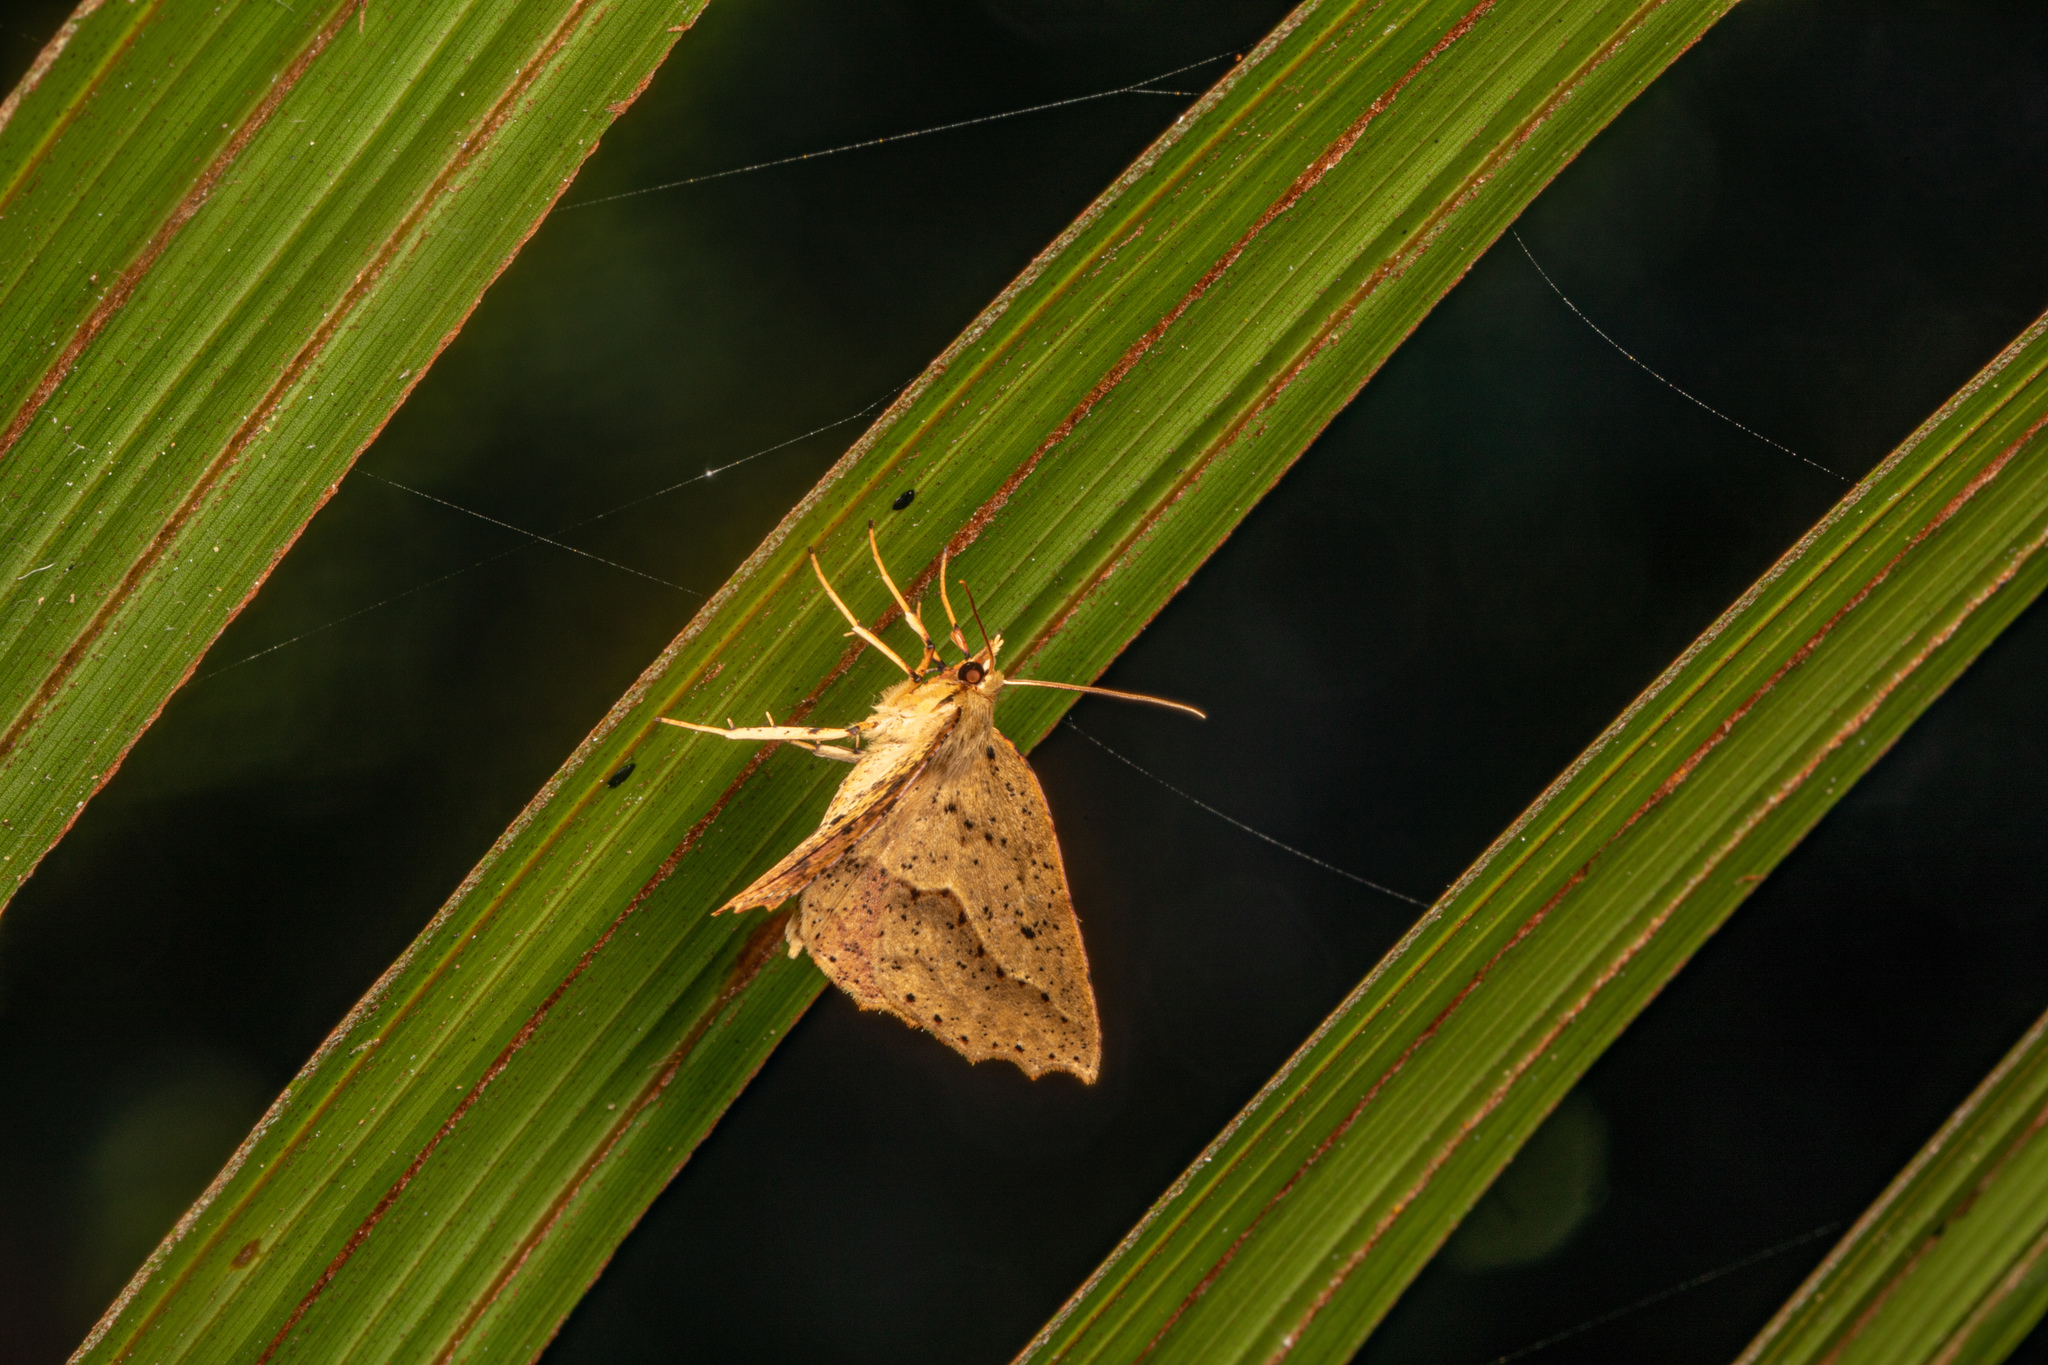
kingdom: Animalia
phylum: Arthropoda
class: Insecta
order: Lepidoptera
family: Geometridae
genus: Ischalis
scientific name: Ischalis variabilis
